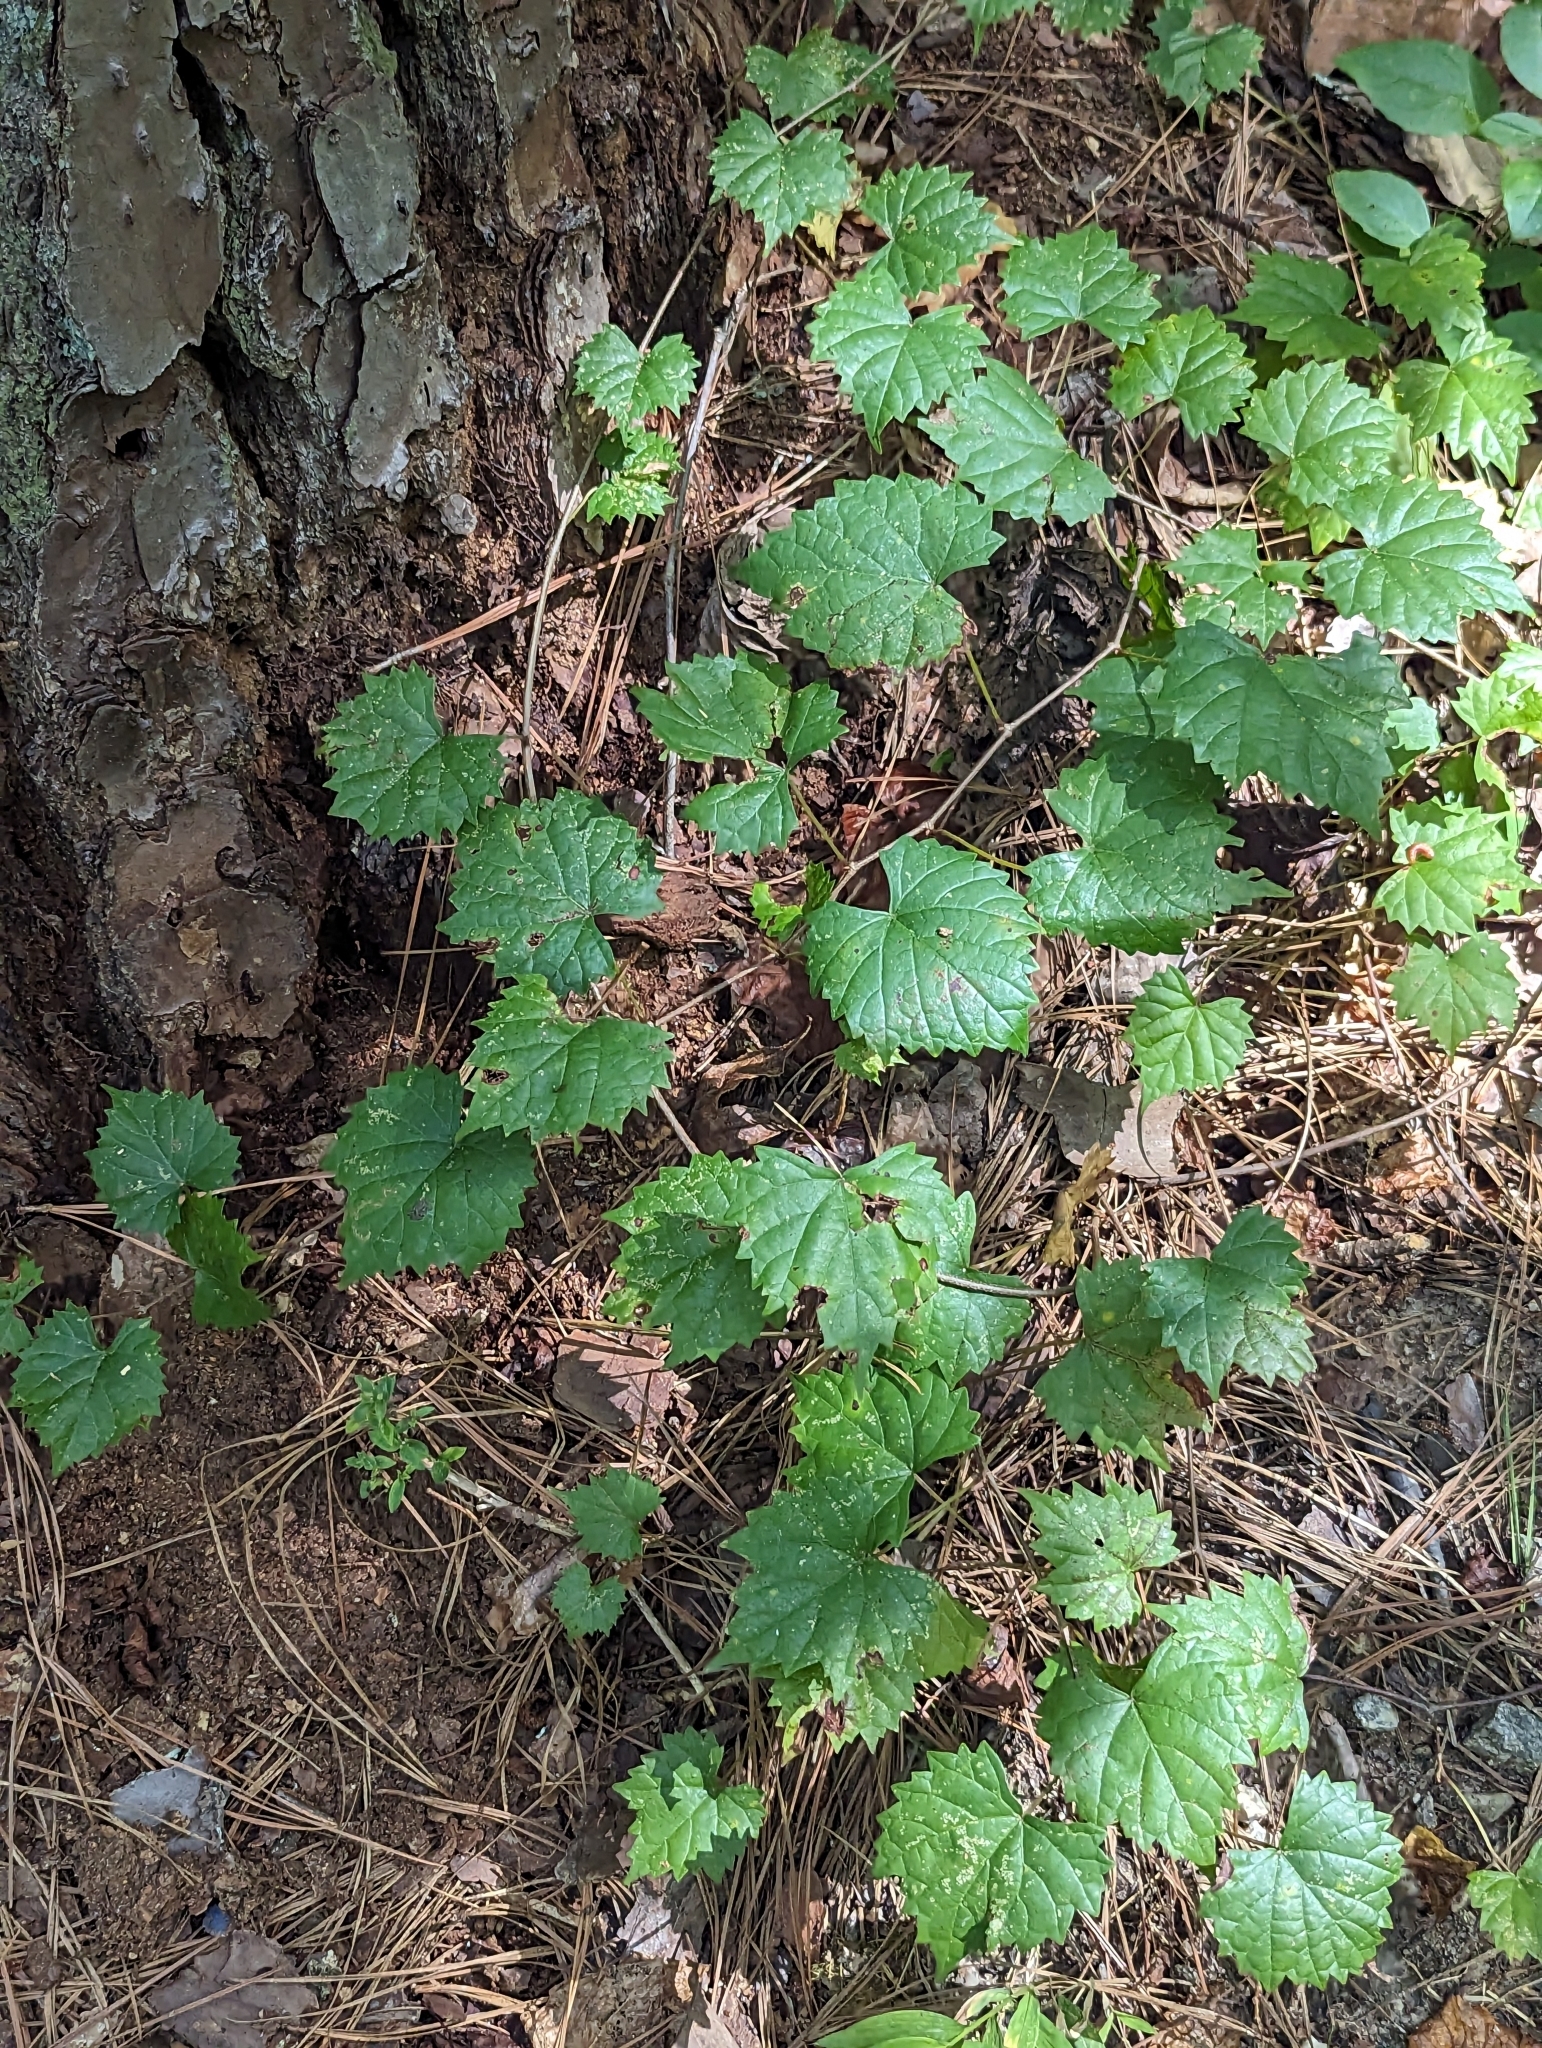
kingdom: Plantae
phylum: Tracheophyta
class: Magnoliopsida
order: Vitales
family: Vitaceae
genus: Vitis
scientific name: Vitis rotundifolia
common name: Muscadine grape
